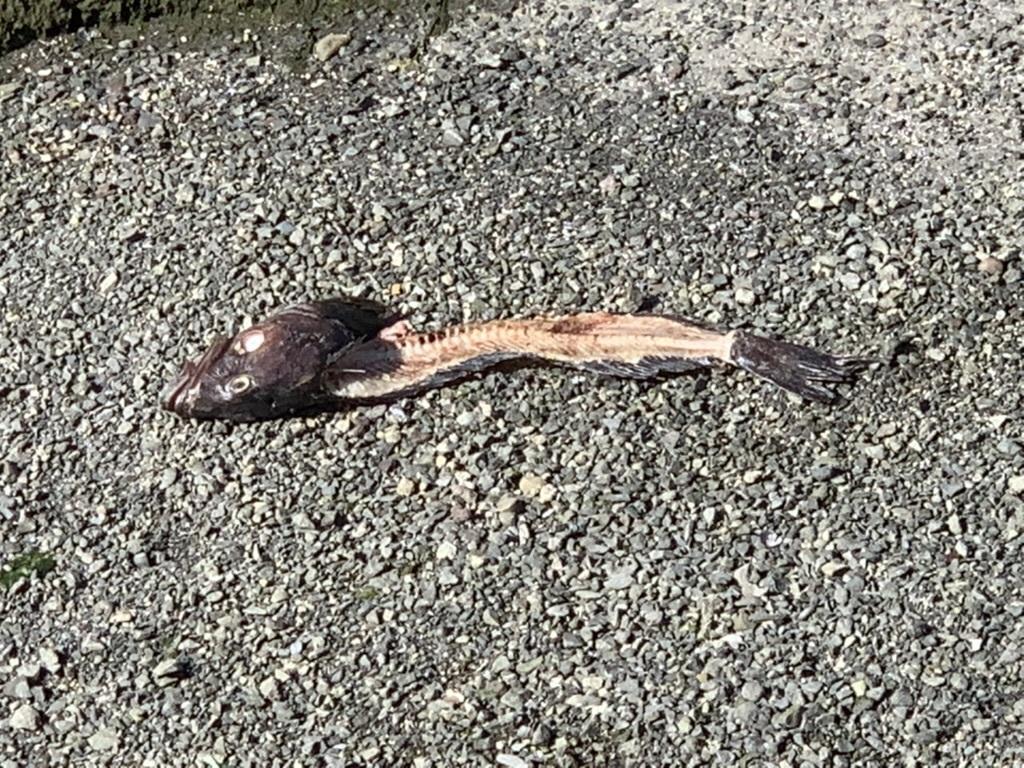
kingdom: Animalia
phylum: Chordata
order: Scorpaeniformes
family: Hexagrammidae
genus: Ophiodon
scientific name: Ophiodon elongatus
